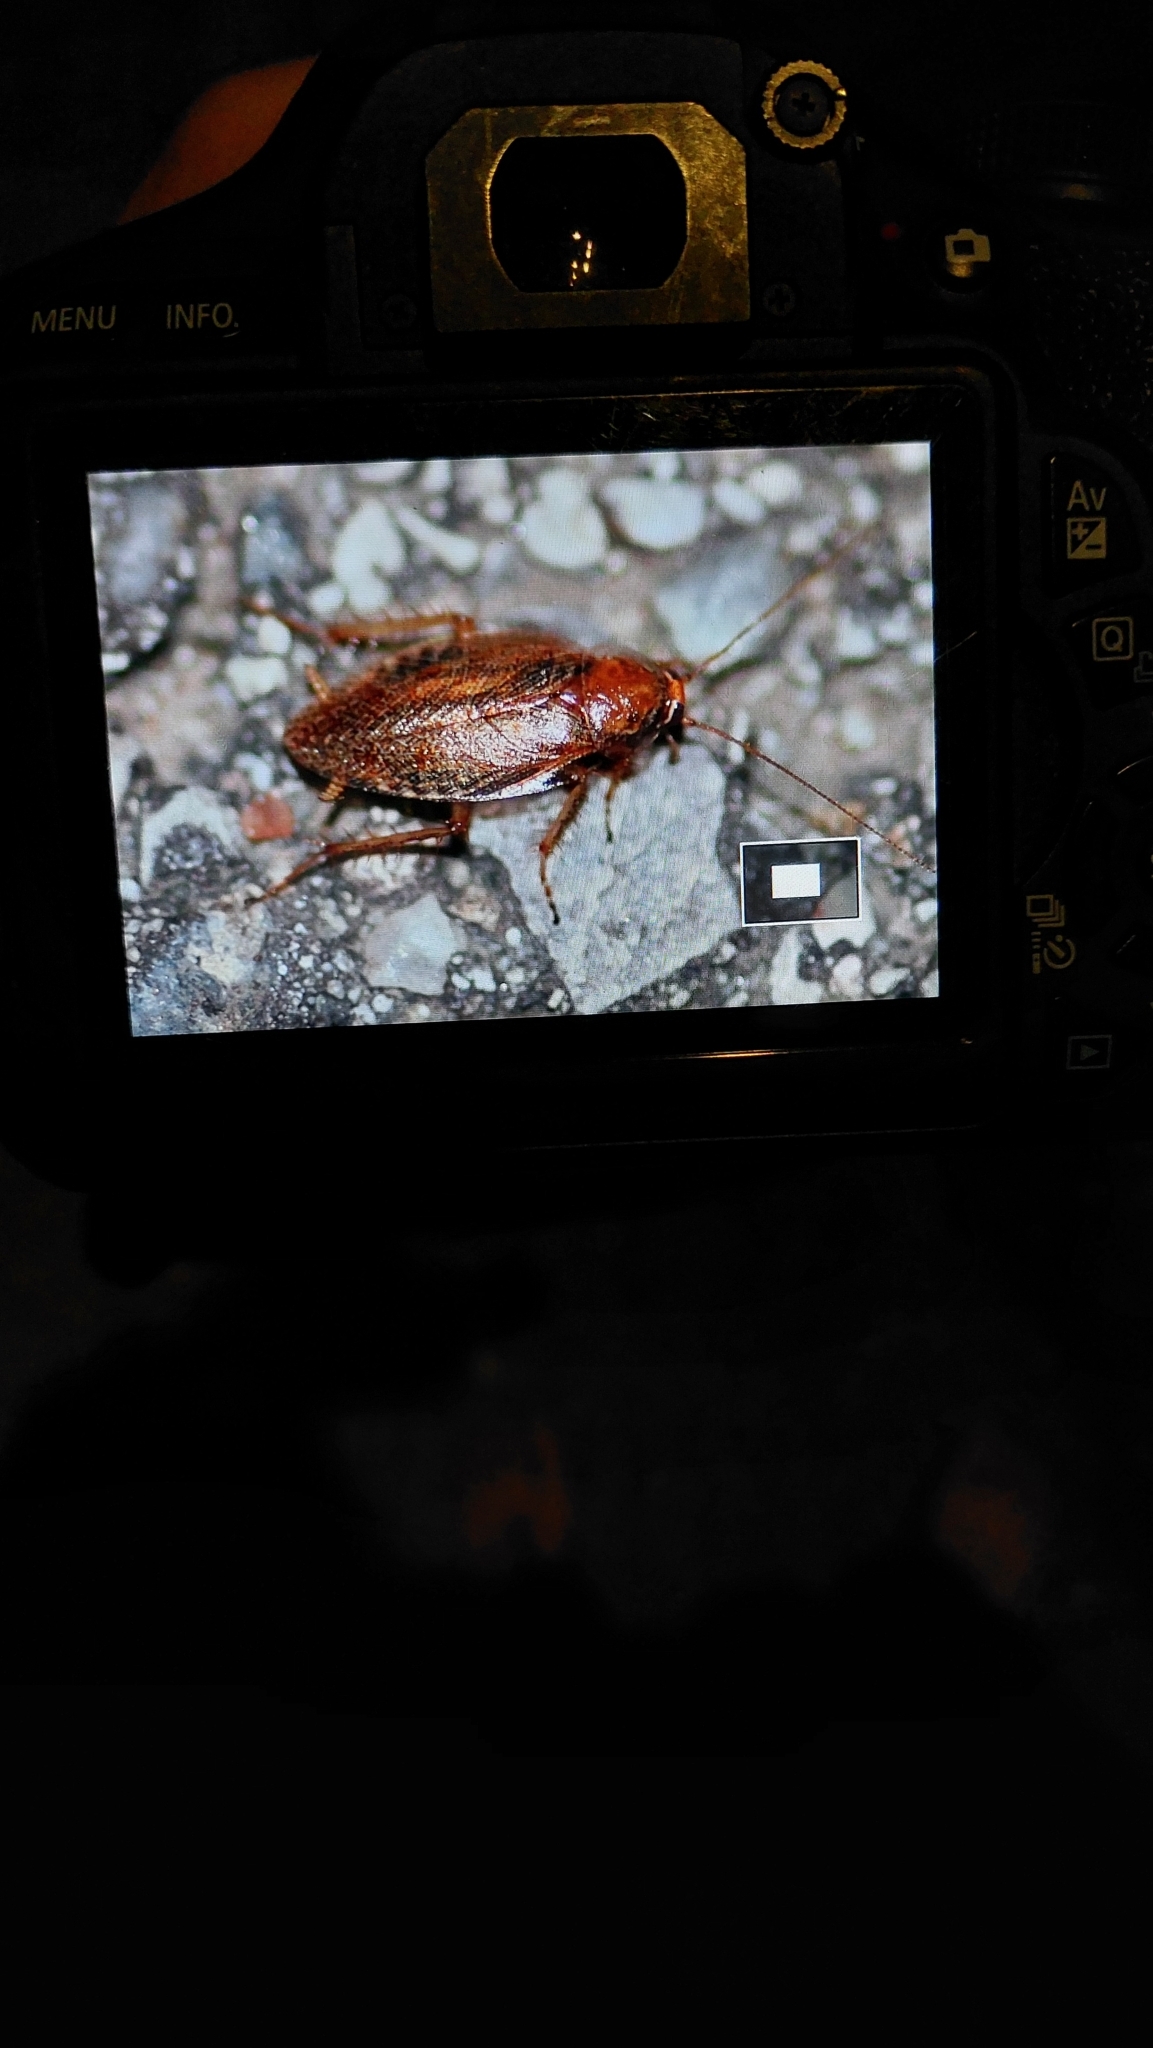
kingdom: Animalia
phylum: Arthropoda
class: Insecta
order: Blattodea
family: Ectobiidae
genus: Ectobius
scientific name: Ectobius vittiventris
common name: Garden cockroach
